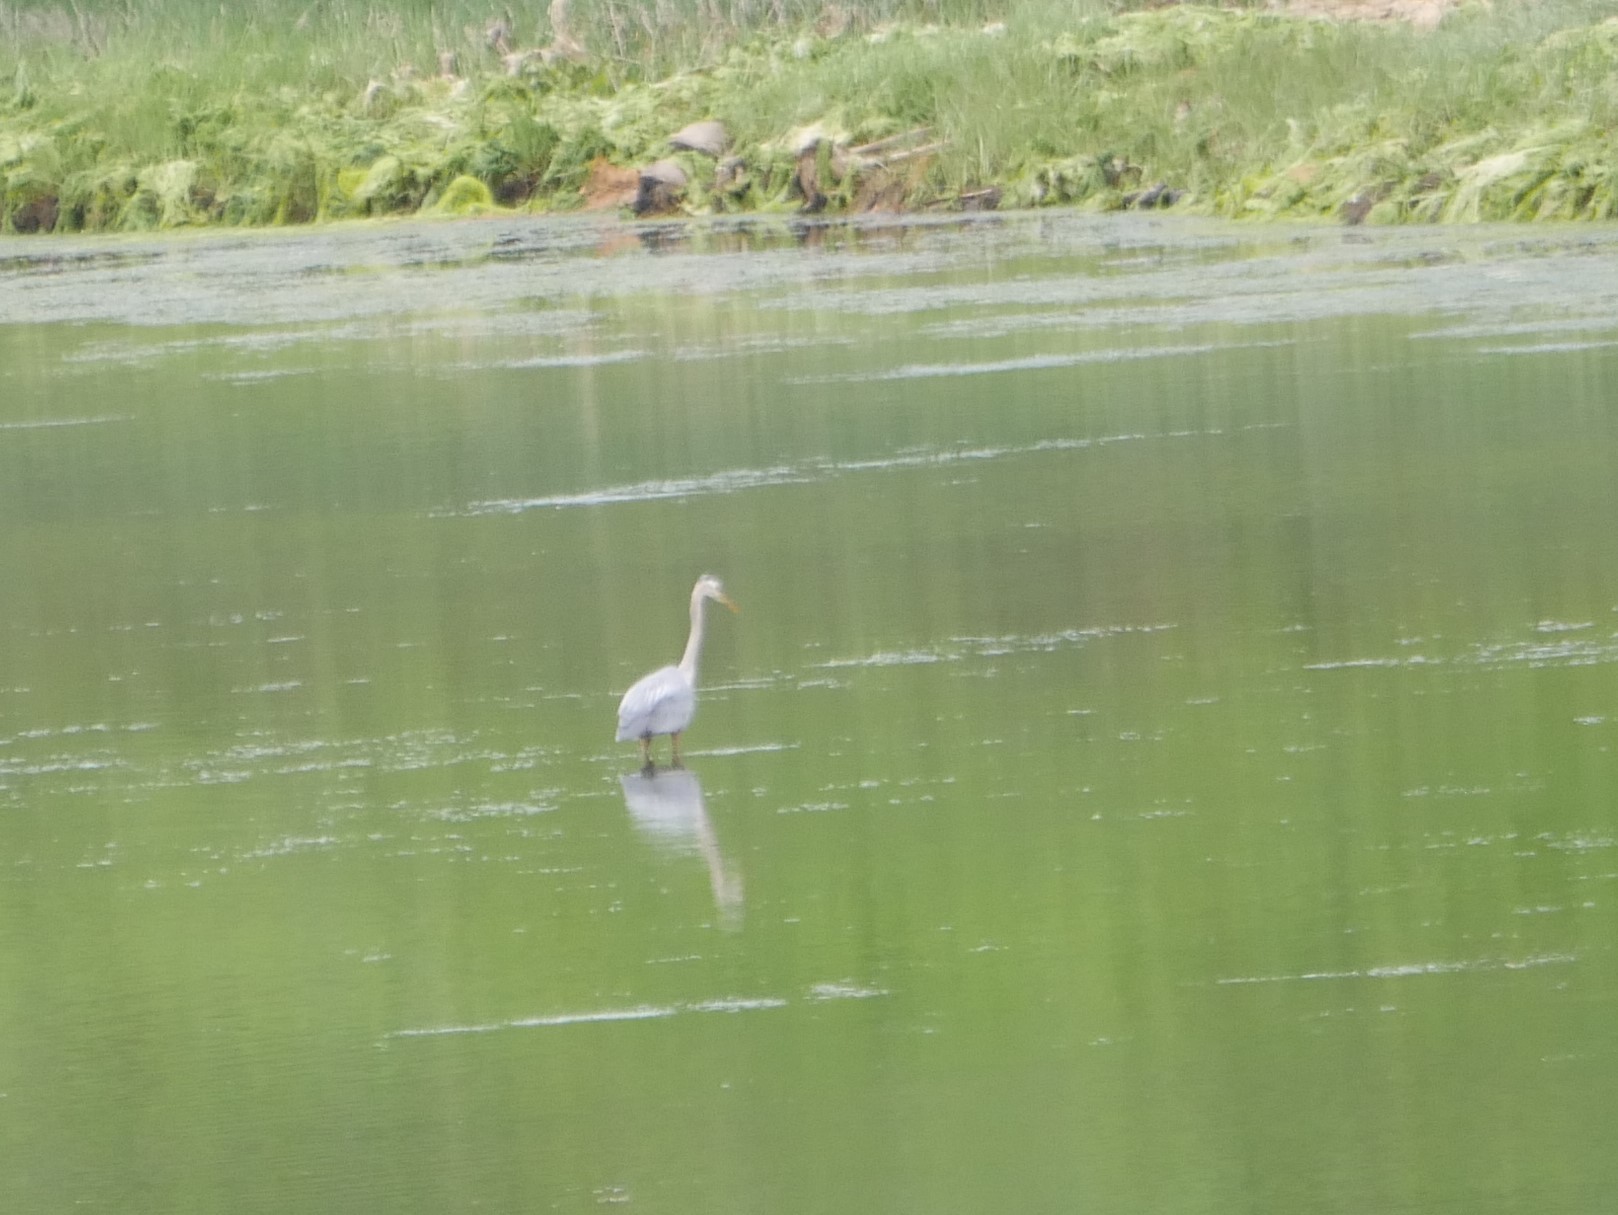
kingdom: Animalia
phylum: Chordata
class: Aves
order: Pelecaniformes
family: Ardeidae
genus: Ardea
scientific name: Ardea herodias
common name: Great blue heron
